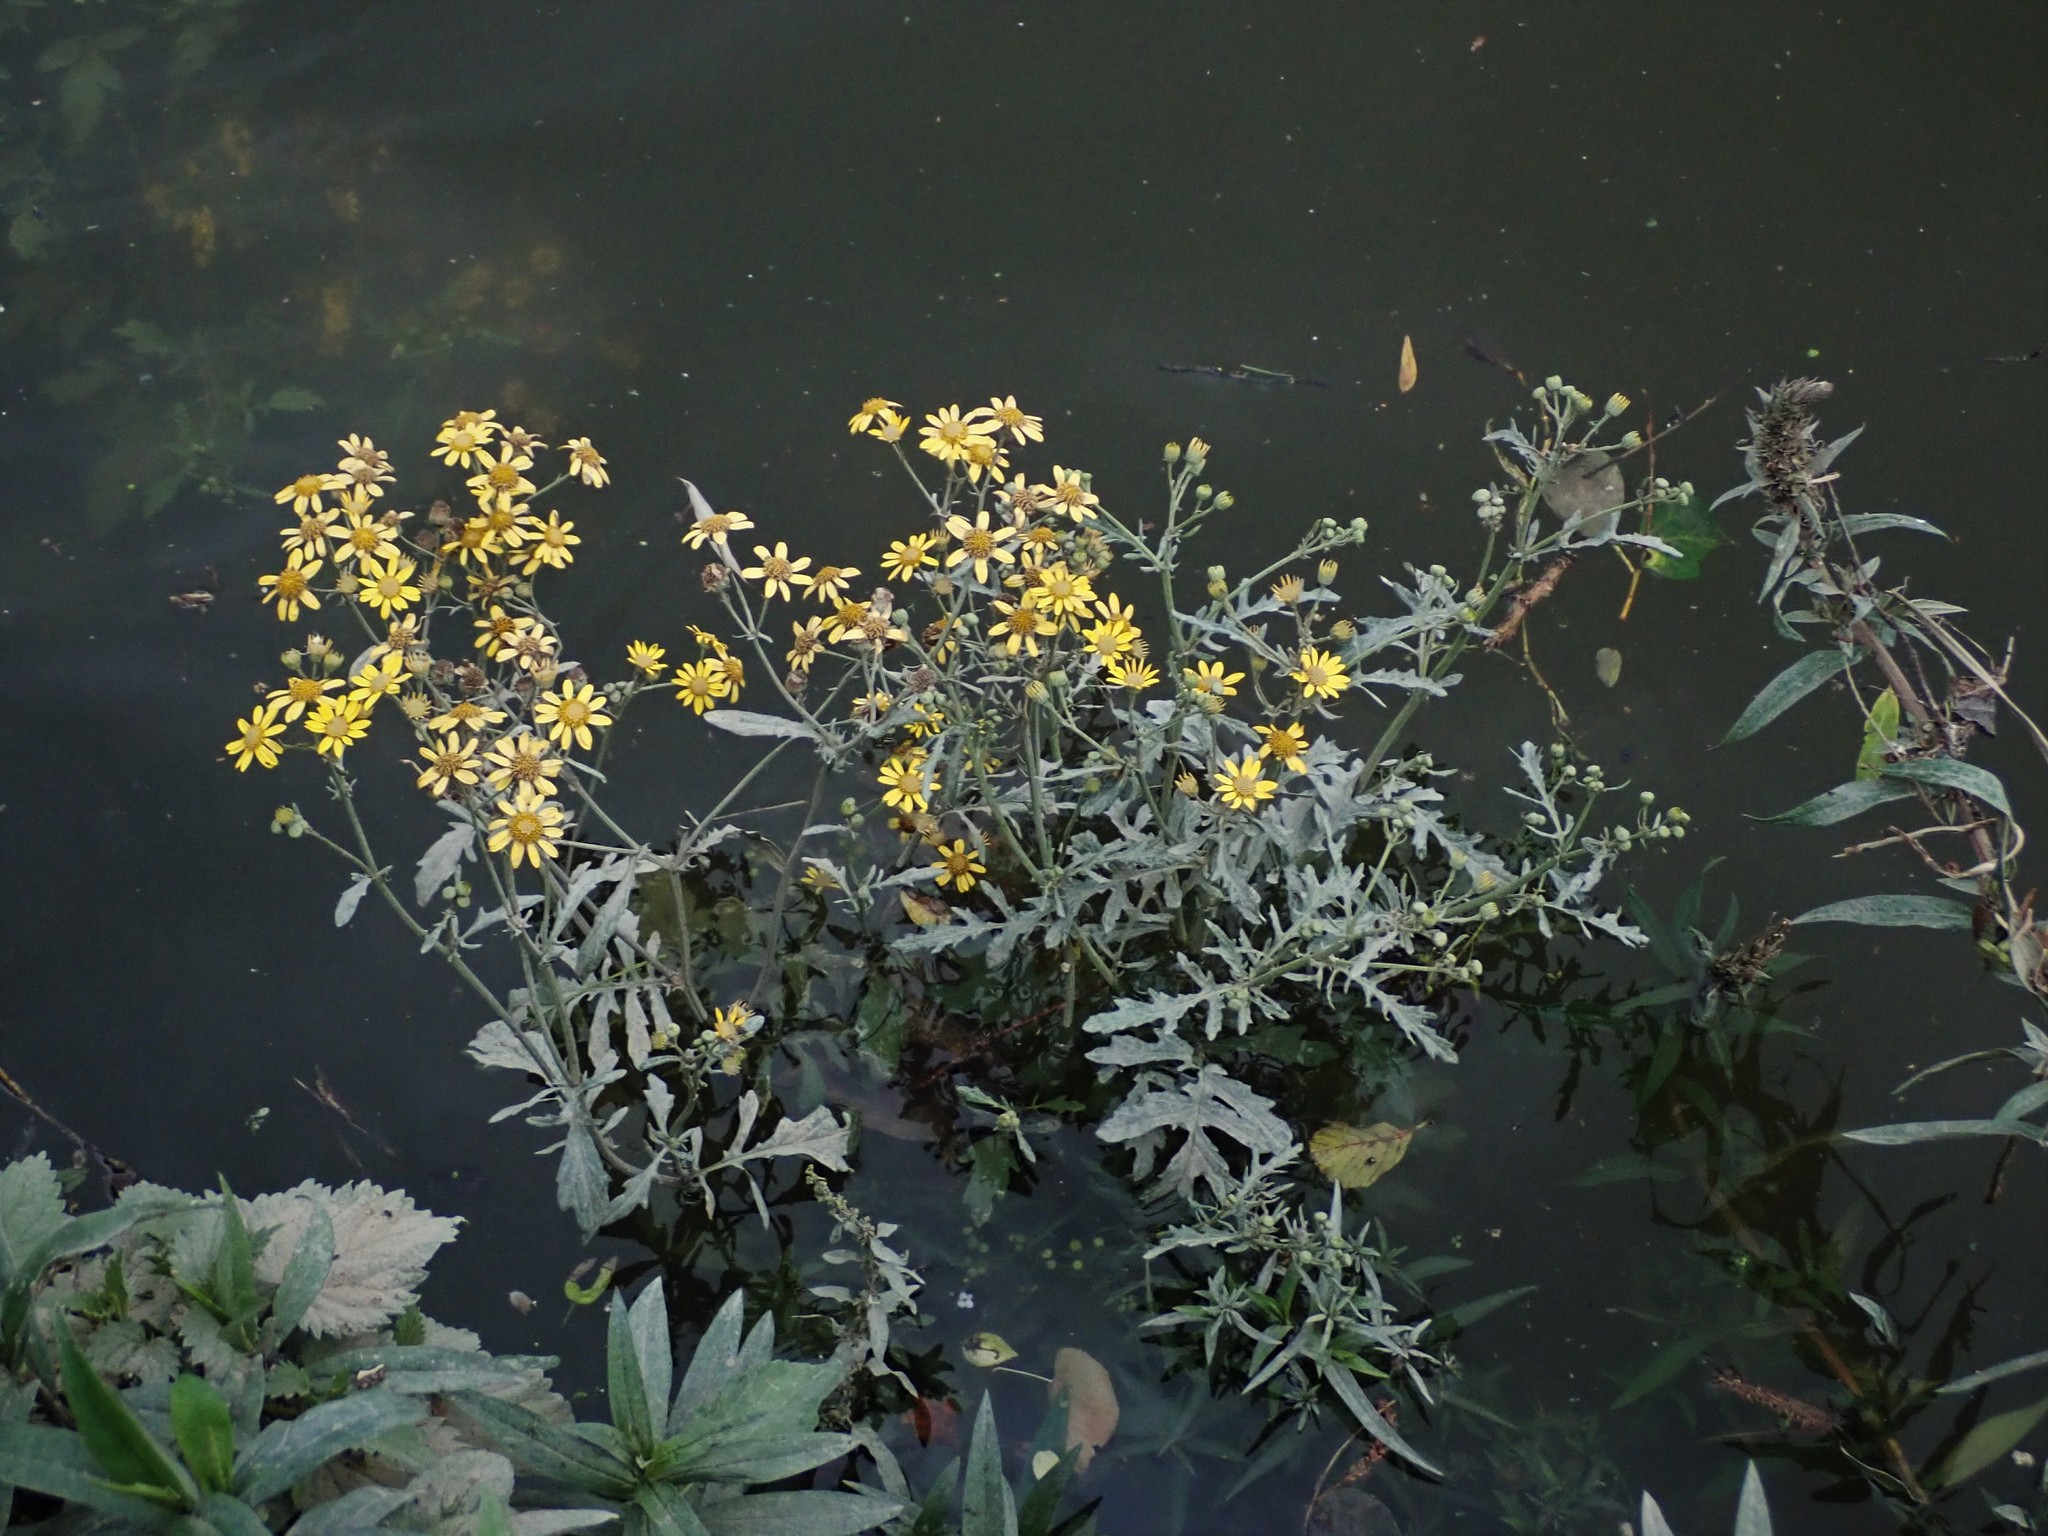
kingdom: Plantae
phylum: Tracheophyta
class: Magnoliopsida
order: Asterales
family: Asteraceae
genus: Jacobaea
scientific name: Jacobaea aquatica
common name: Water ragwort
